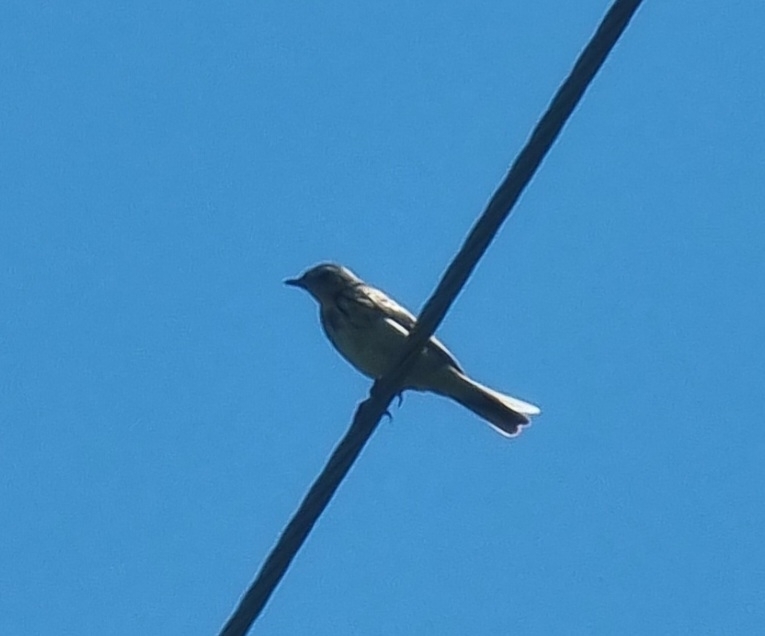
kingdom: Animalia
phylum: Chordata
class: Aves
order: Passeriformes
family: Motacillidae
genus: Anthus
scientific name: Anthus trivialis
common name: Tree pipit
